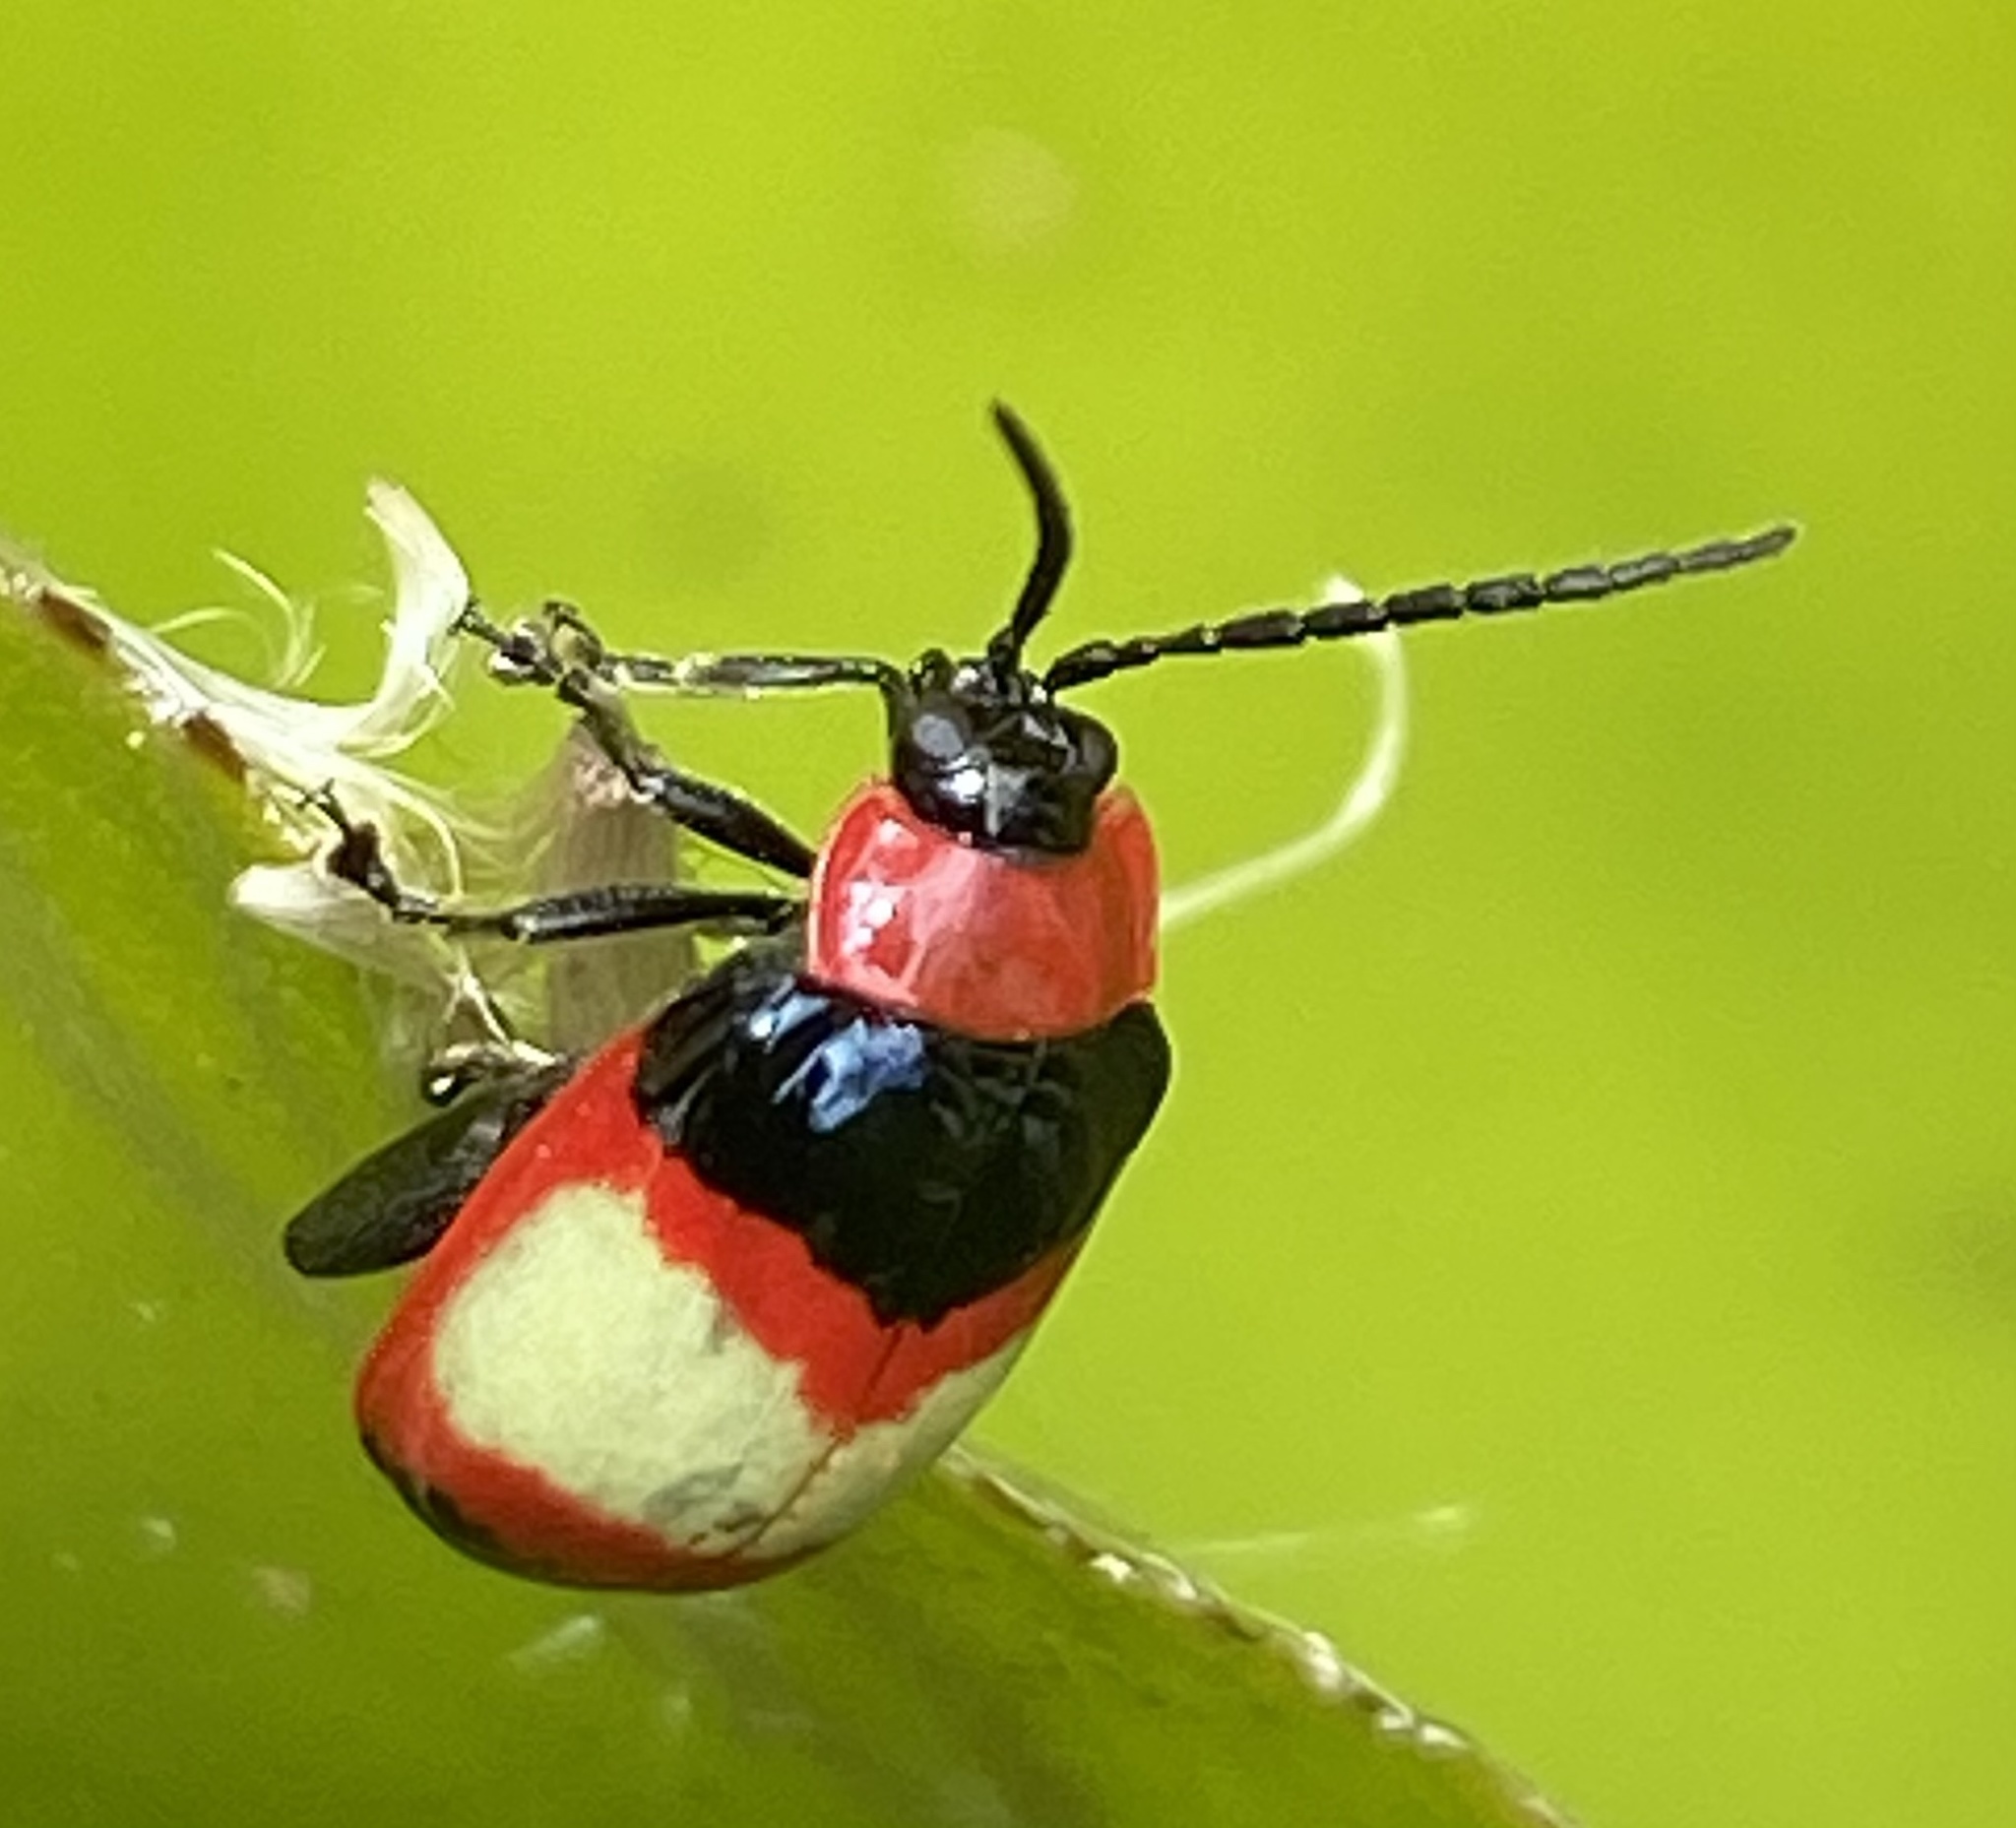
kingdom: Animalia
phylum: Arthropoda
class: Insecta
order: Coleoptera
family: Chrysomelidae
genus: Alagoasa
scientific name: Alagoasa
